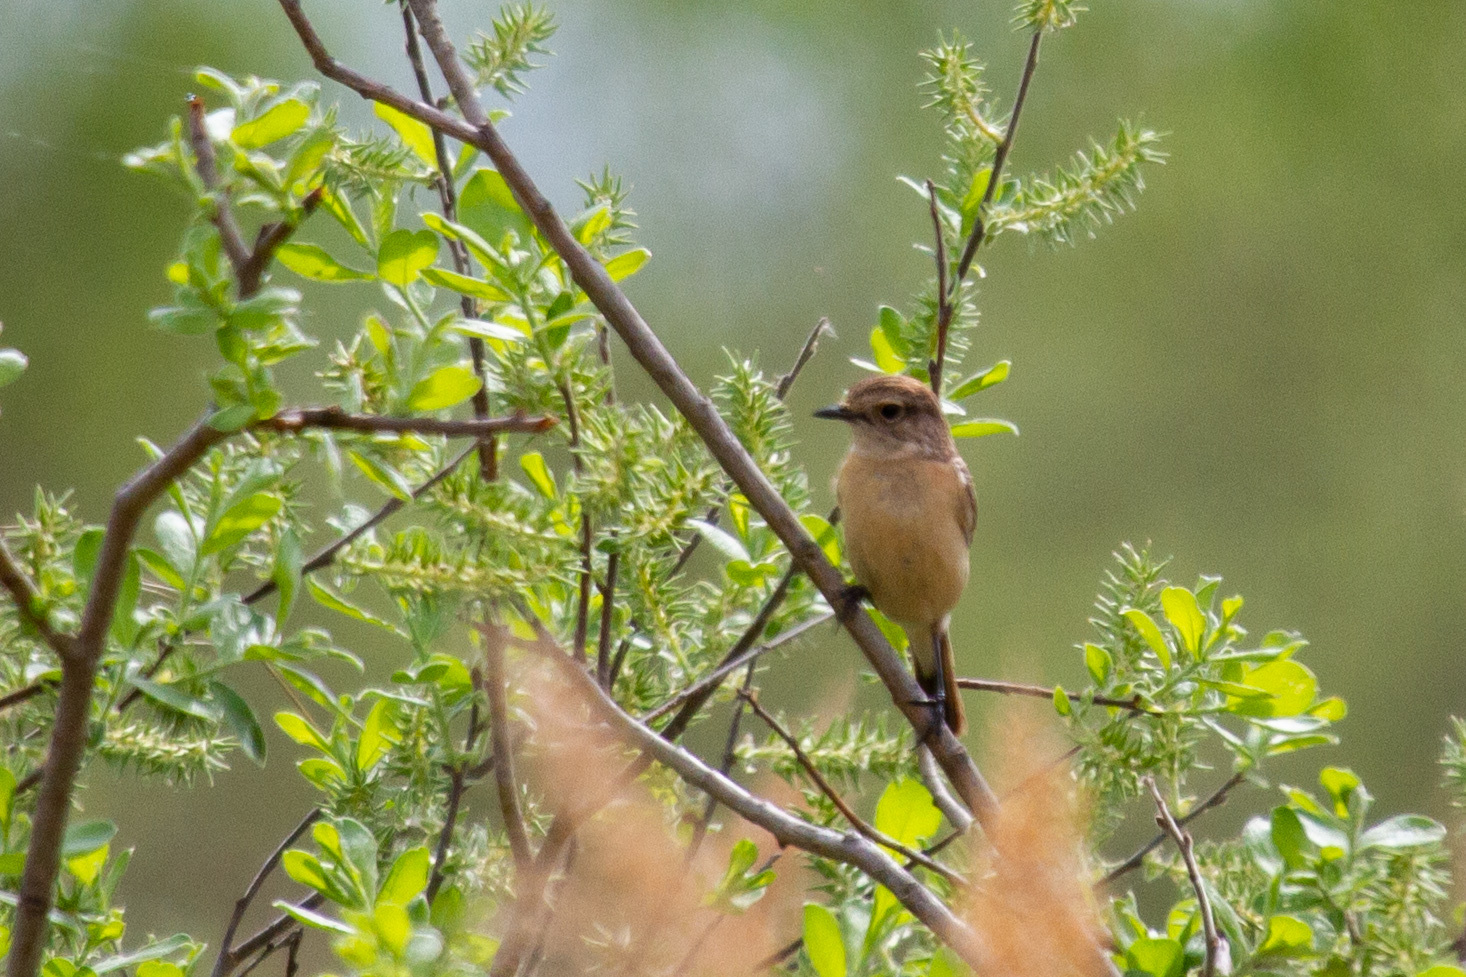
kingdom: Animalia
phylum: Chordata
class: Aves
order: Passeriformes
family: Muscicapidae
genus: Saxicola
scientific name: Saxicola maurus
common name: Siberian stonechat
